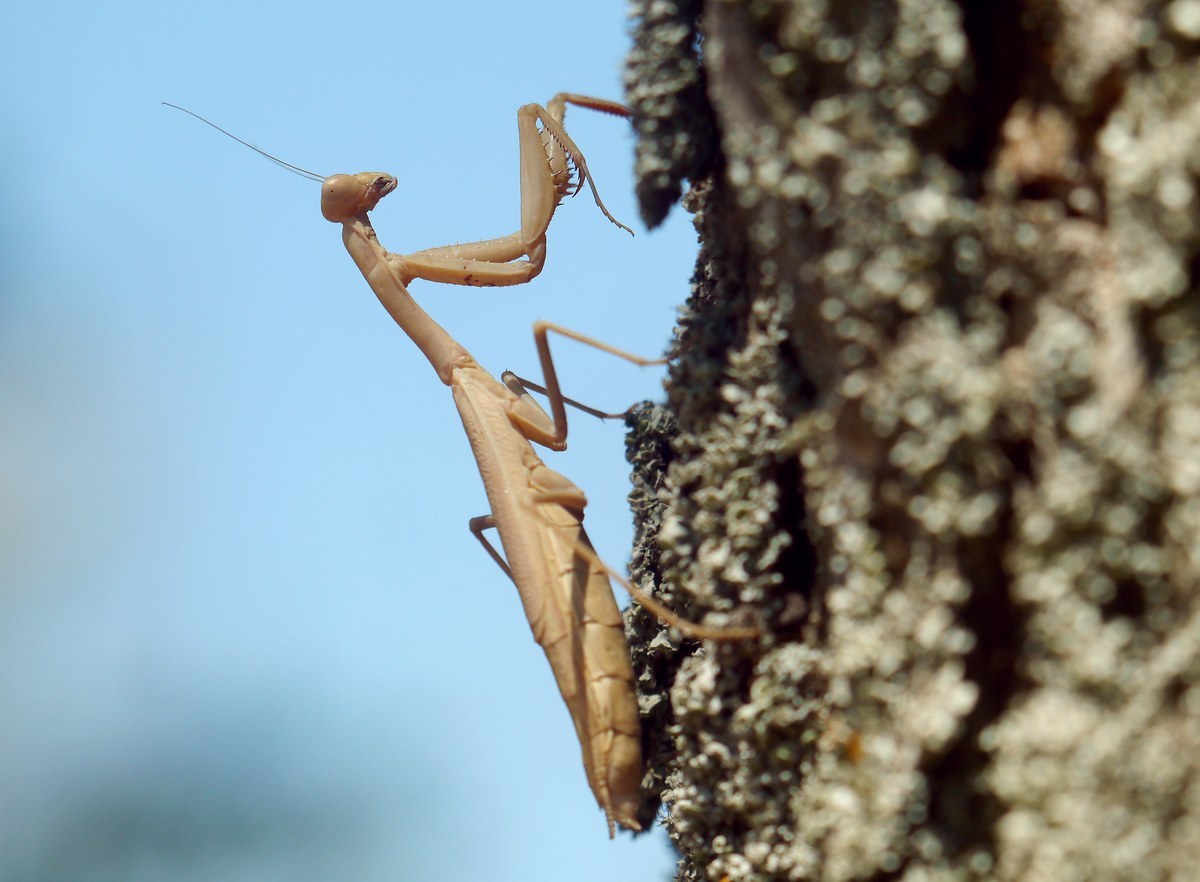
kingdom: Animalia
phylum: Arthropoda
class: Insecta
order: Mantodea
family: Eremiaphilidae
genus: Iris
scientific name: Iris polystictica
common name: Dot-winged mantis
